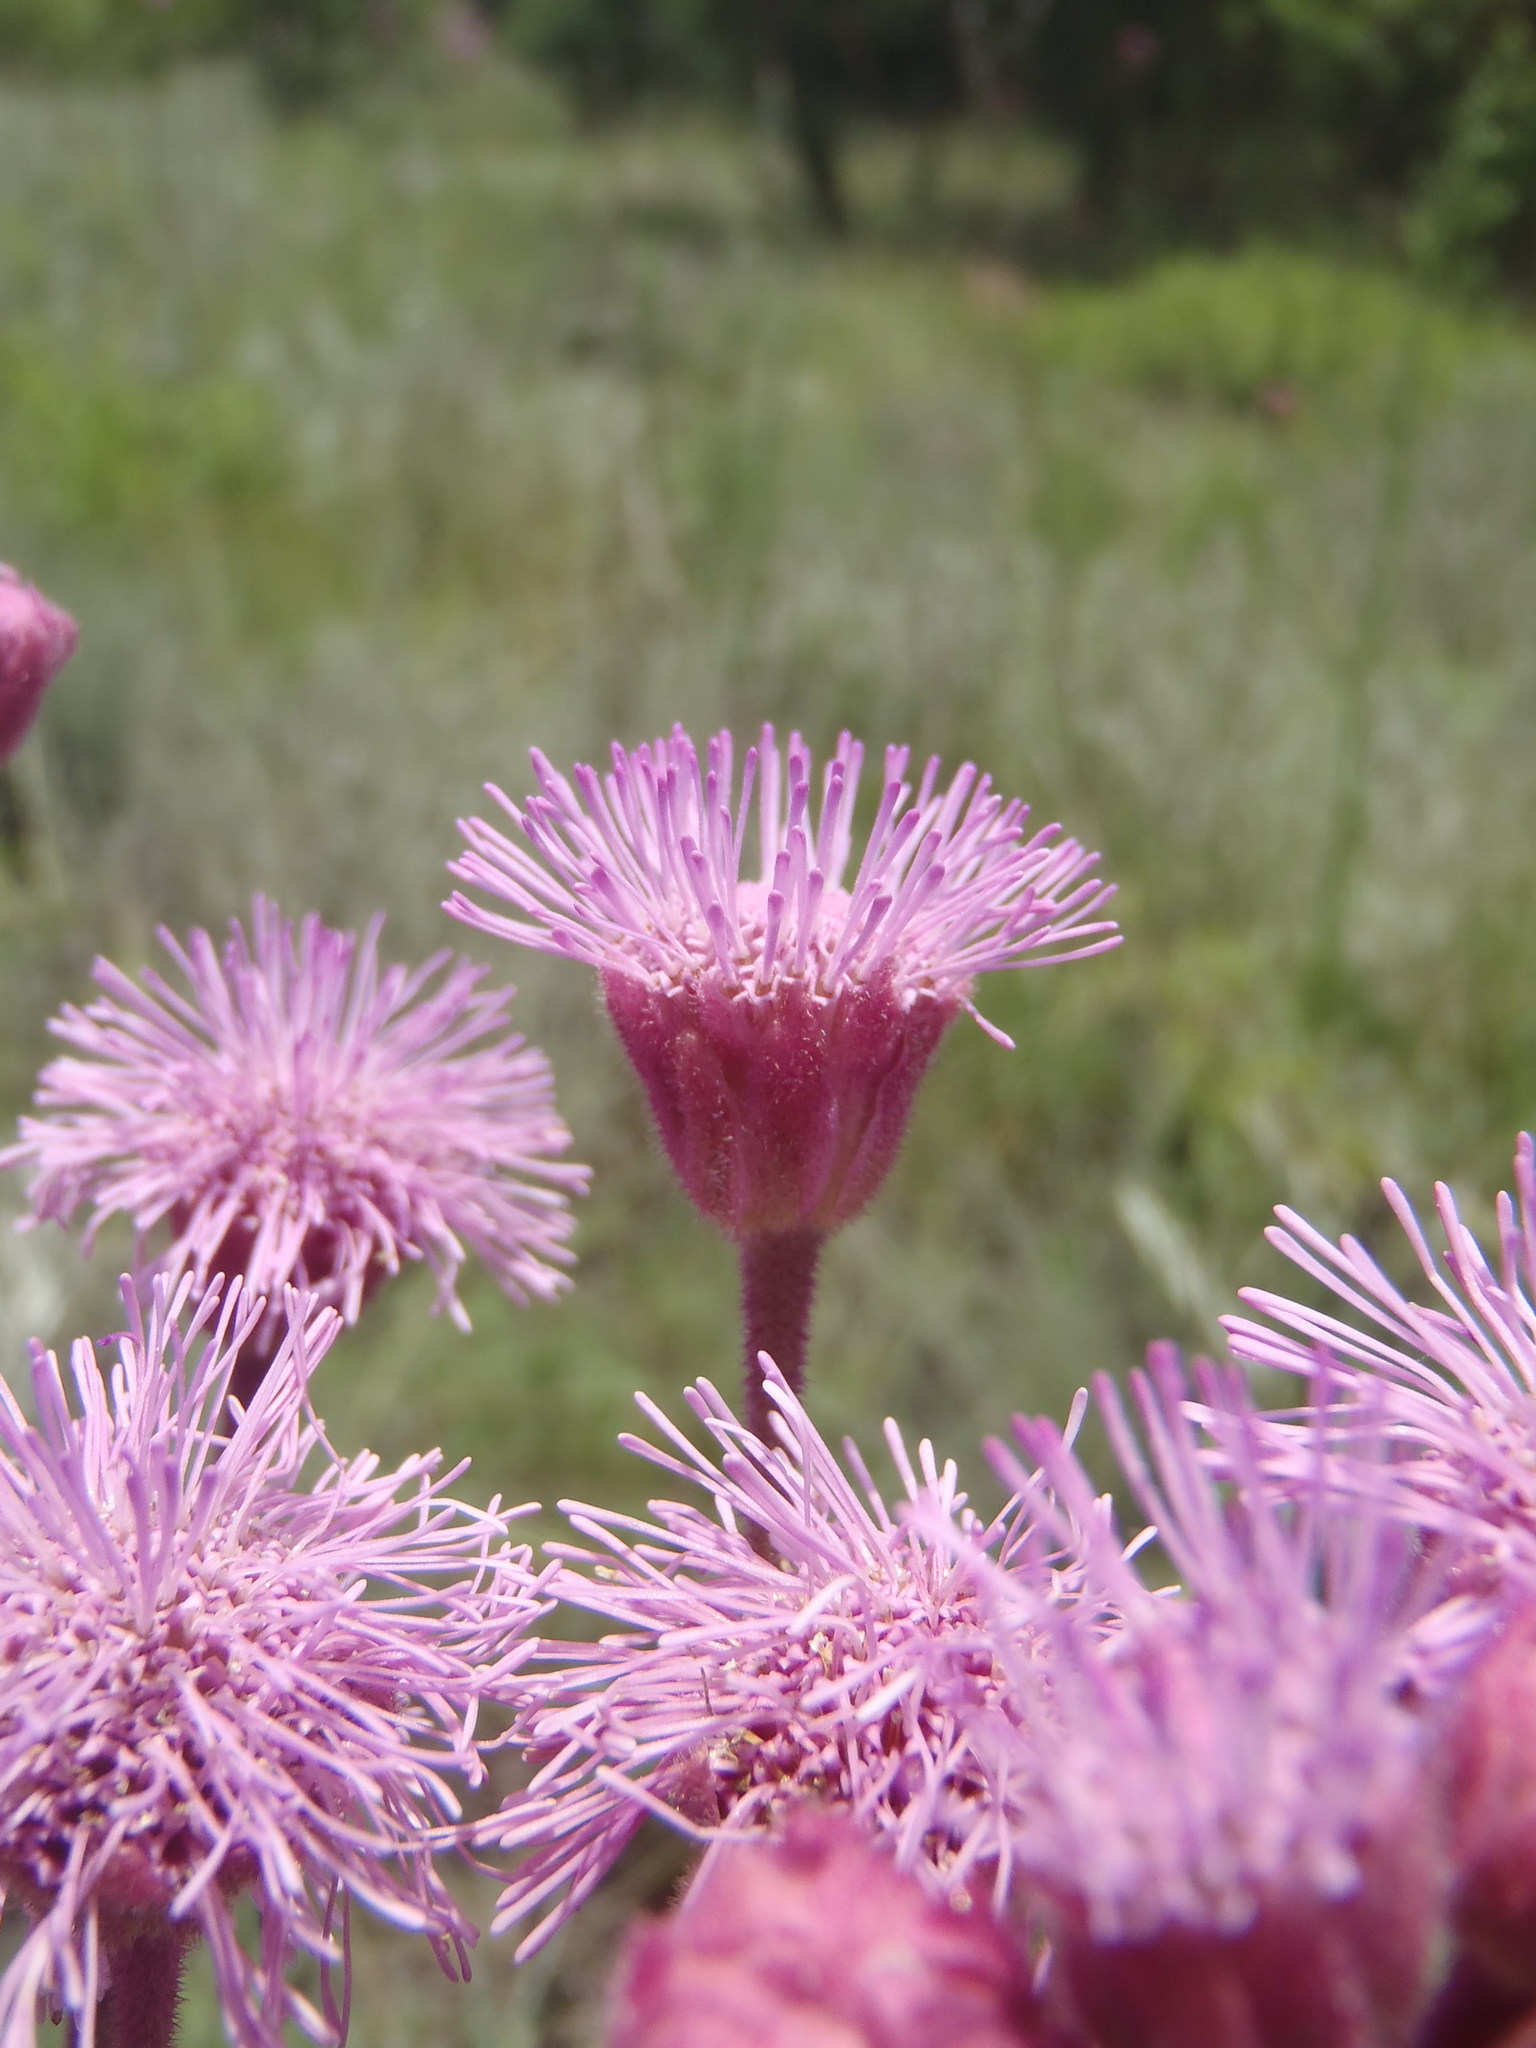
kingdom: Plantae
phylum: Tracheophyta
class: Magnoliopsida
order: Asterales
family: Asteraceae
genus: Campuloclinium
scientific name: Campuloclinium macrocephalum
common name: Pompomweed
